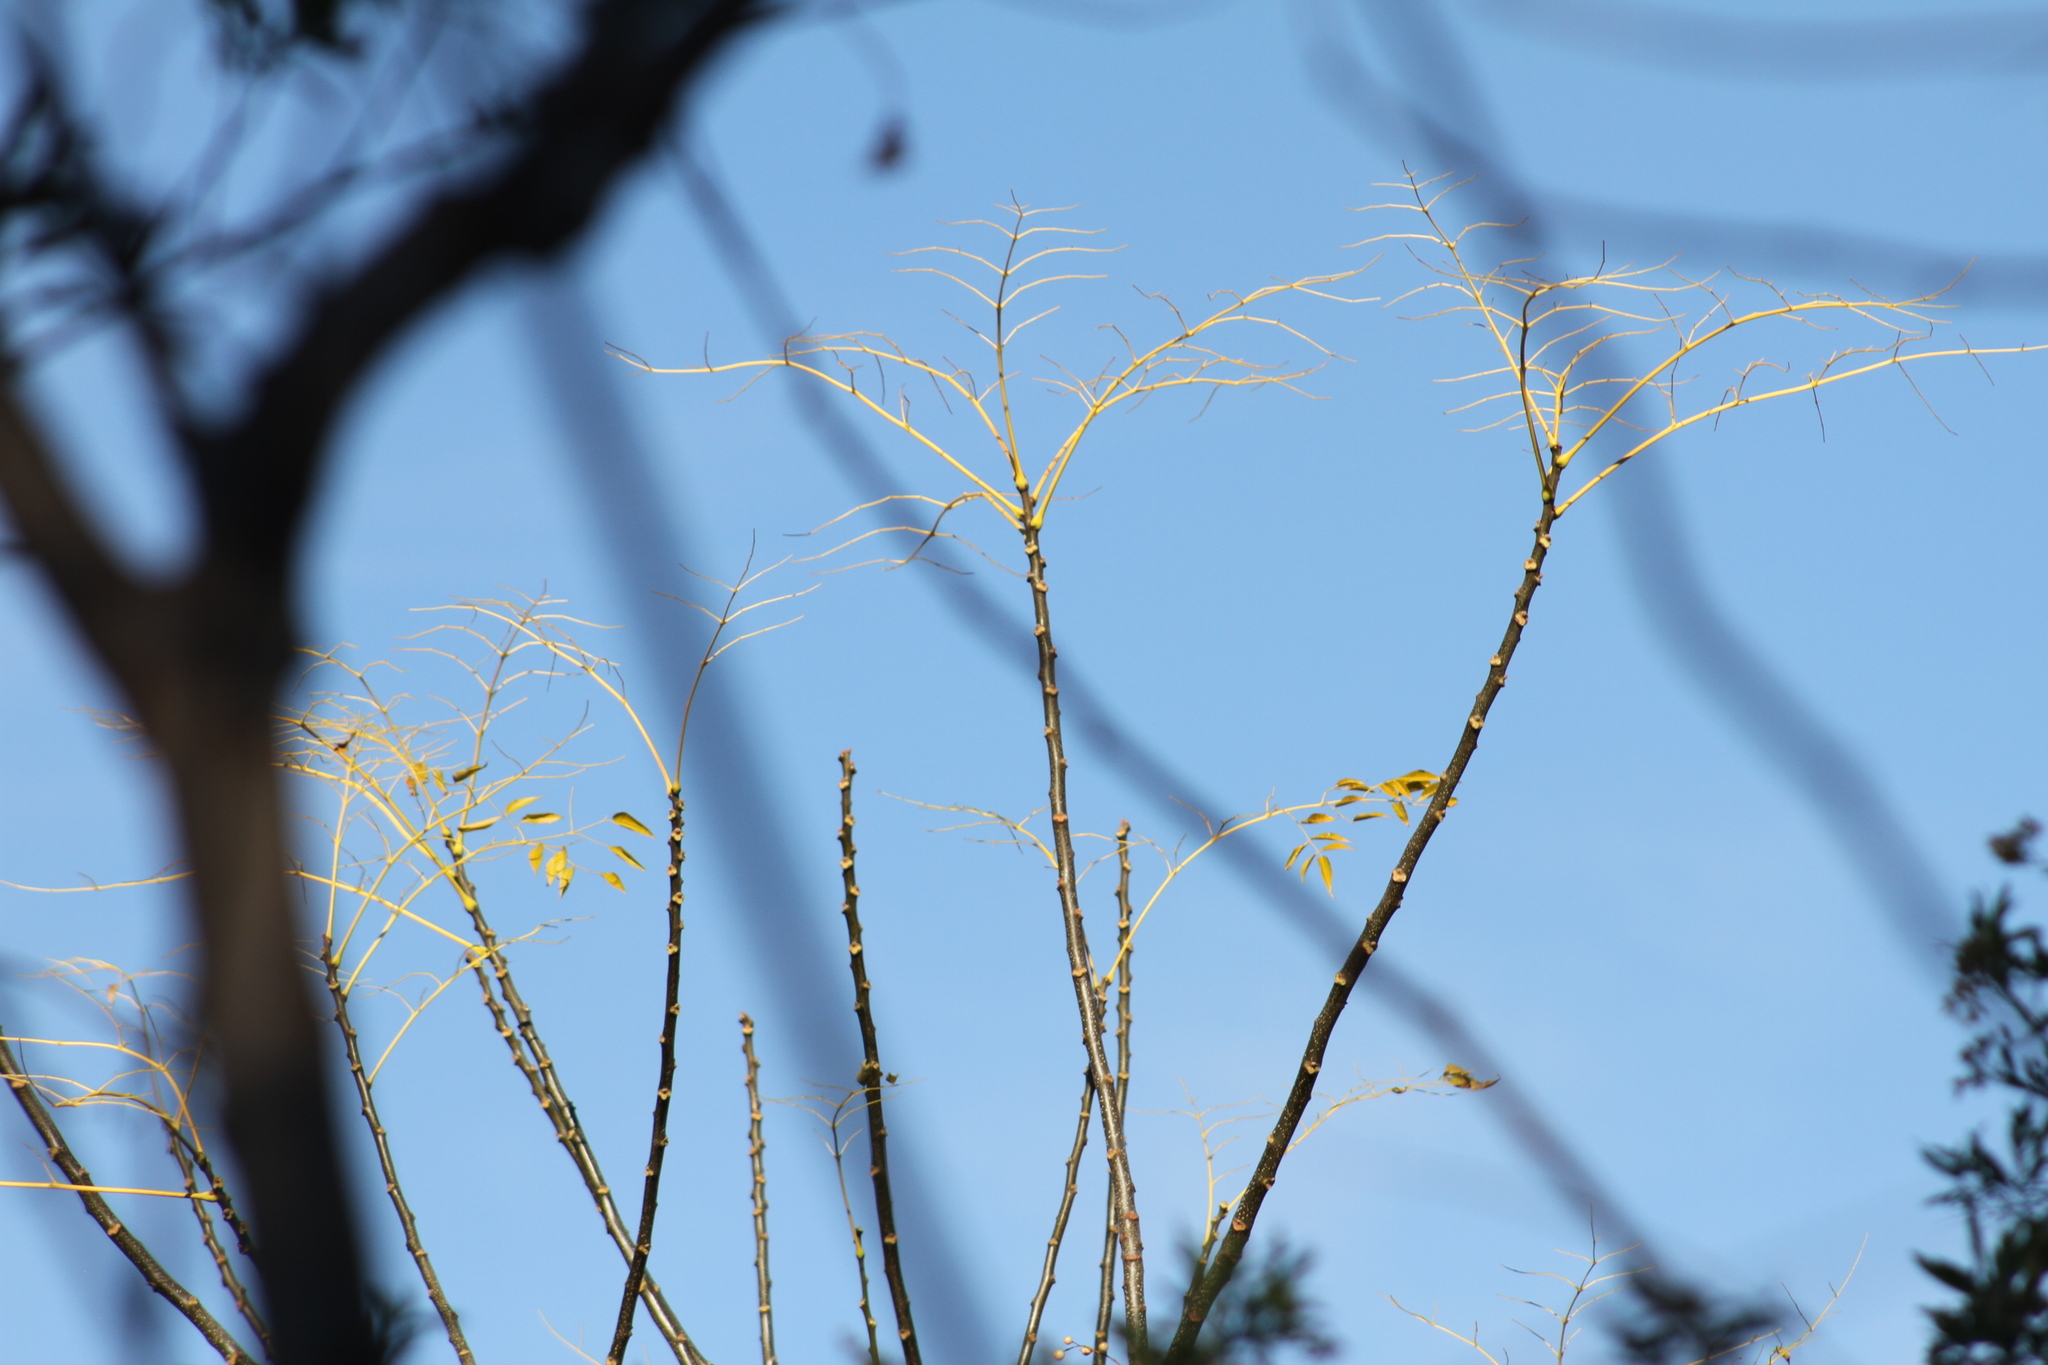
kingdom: Plantae
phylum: Tracheophyta
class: Magnoliopsida
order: Sapindales
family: Meliaceae
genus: Melia
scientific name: Melia azedarach
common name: Chinaberrytree
